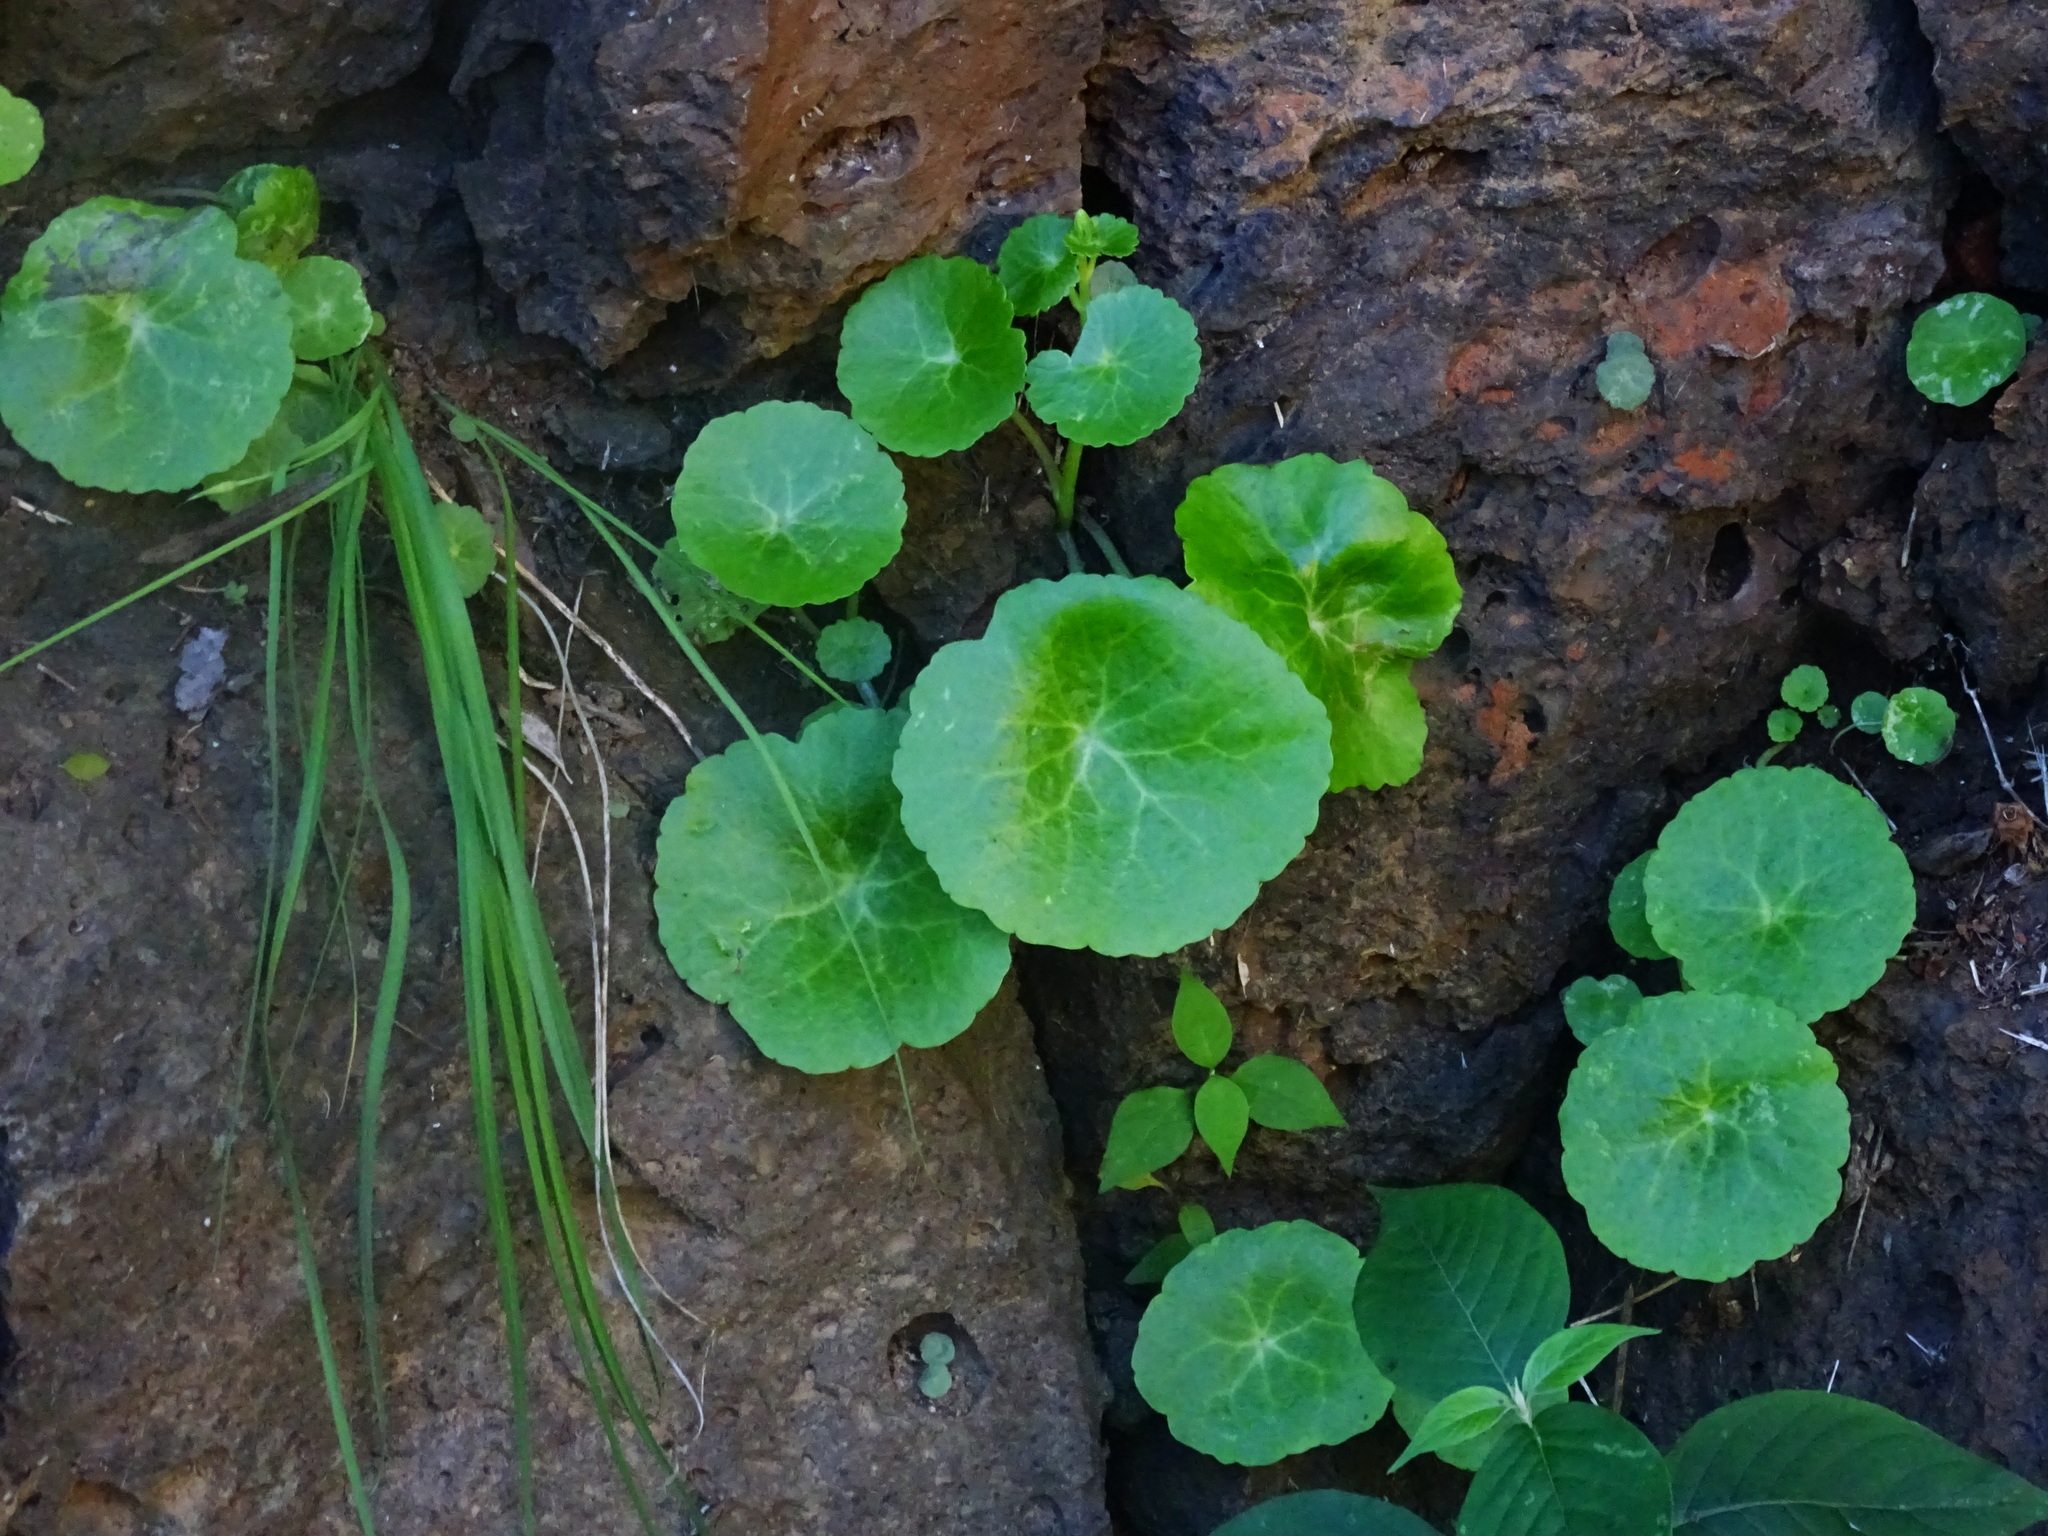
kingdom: Plantae
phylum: Tracheophyta
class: Magnoliopsida
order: Saxifragales
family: Crassulaceae
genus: Umbilicus
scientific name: Umbilicus horizontalis
